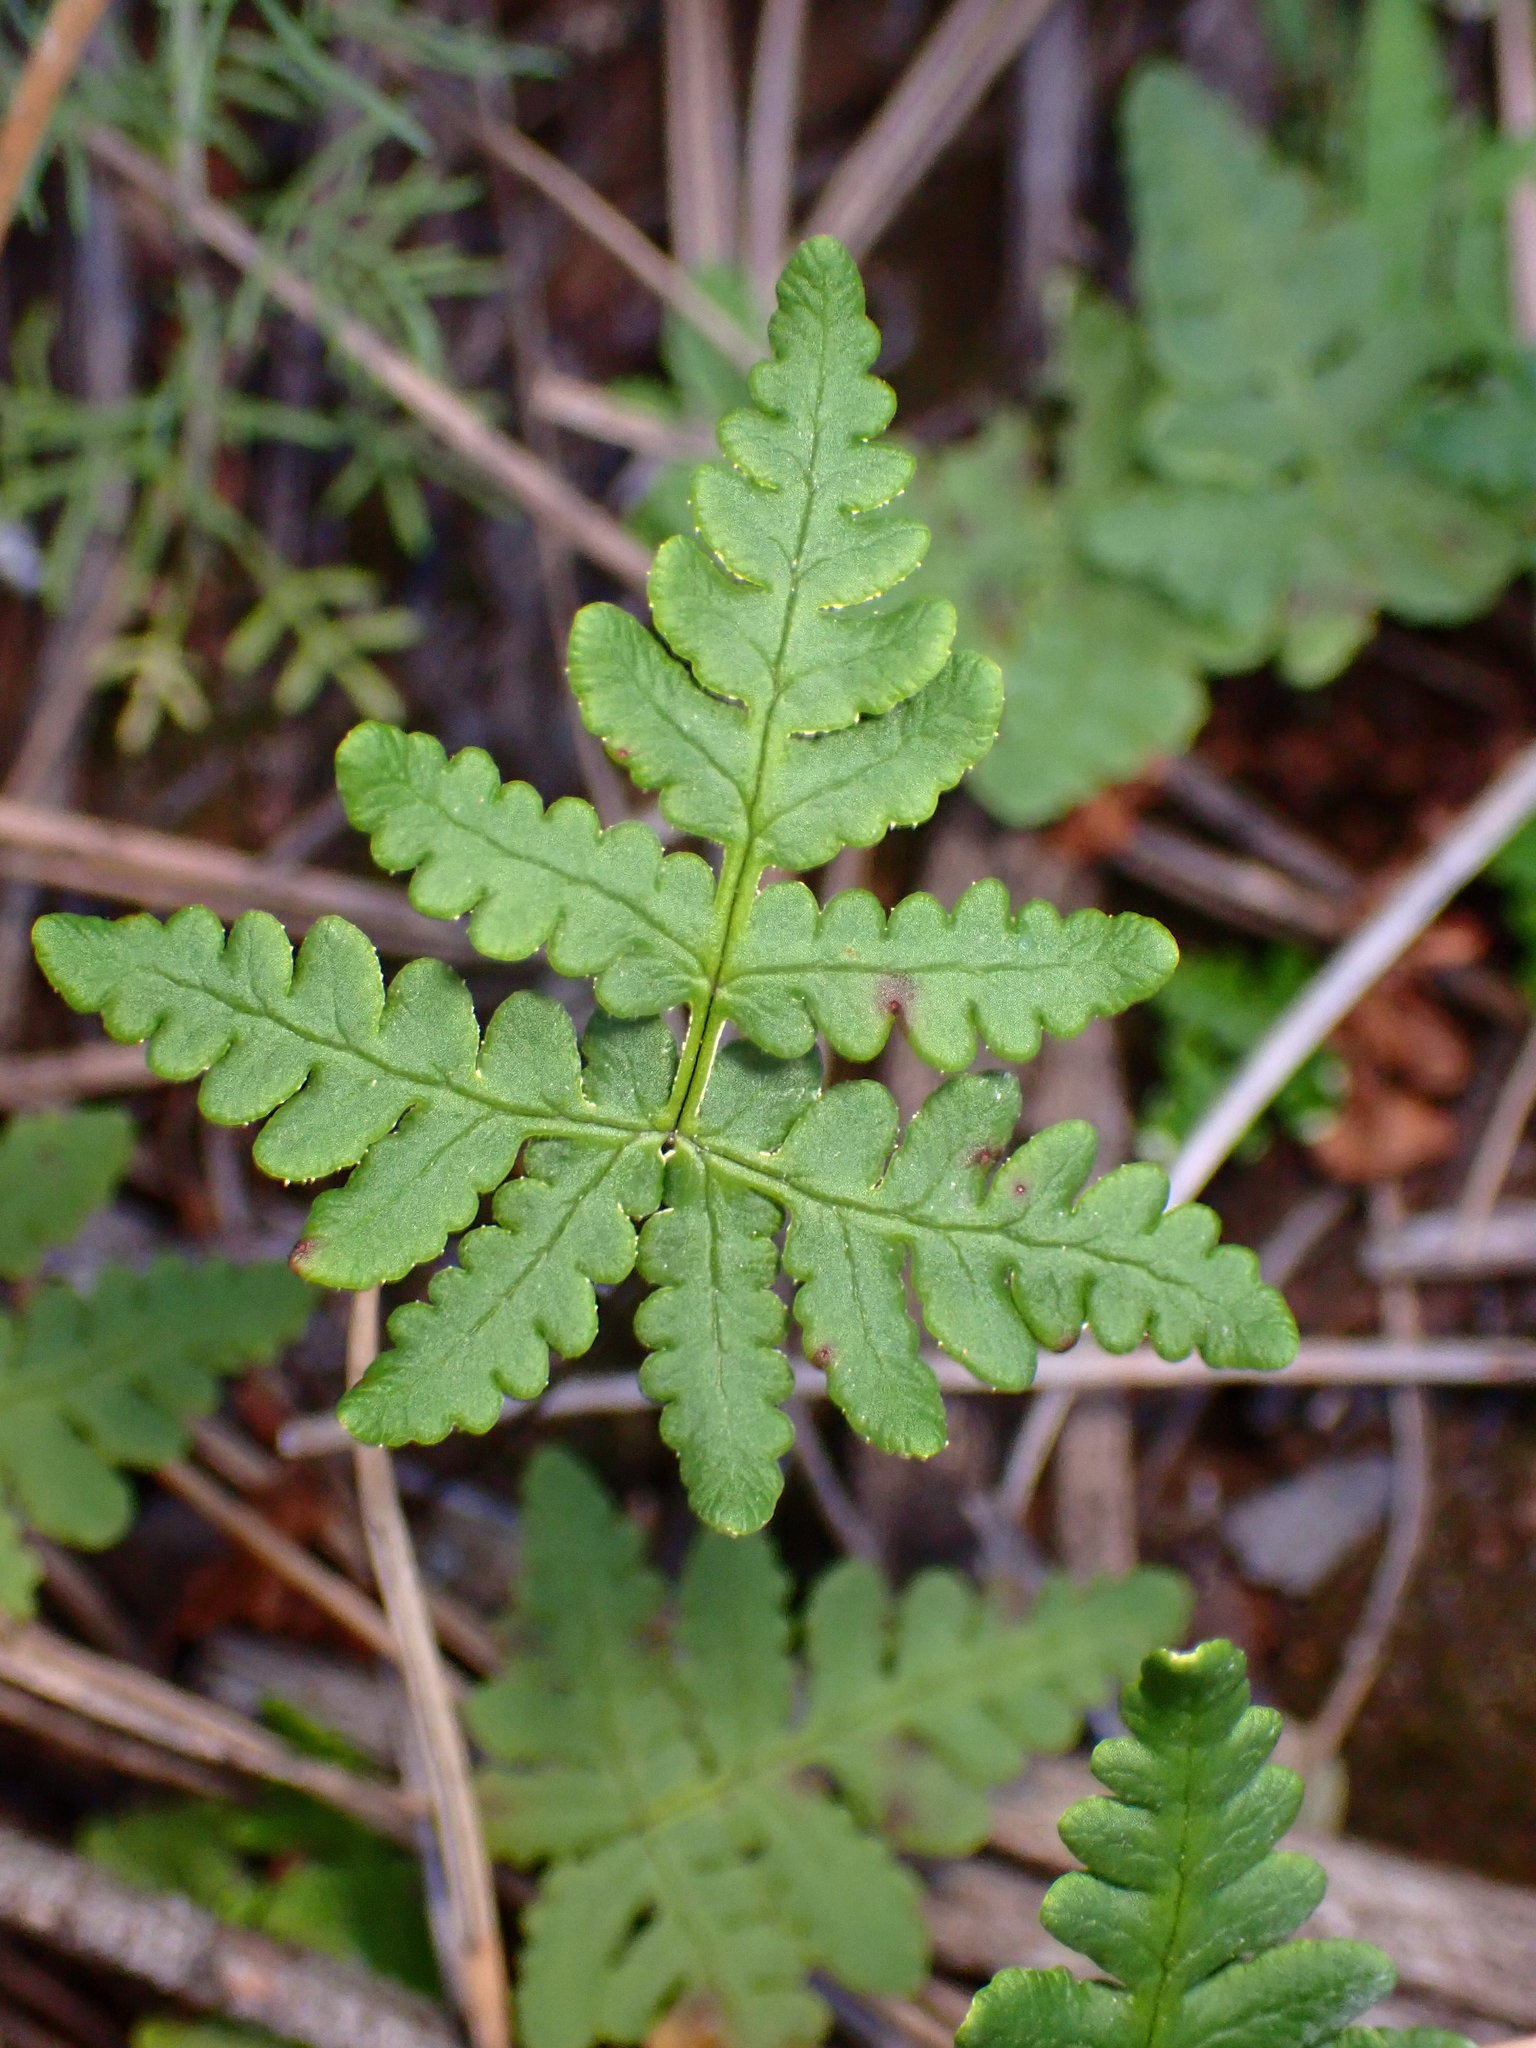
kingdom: Plantae
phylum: Tracheophyta
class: Polypodiopsida
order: Polypodiales
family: Pteridaceae
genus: Pentagramma
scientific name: Pentagramma triangularis
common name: Gold fern
